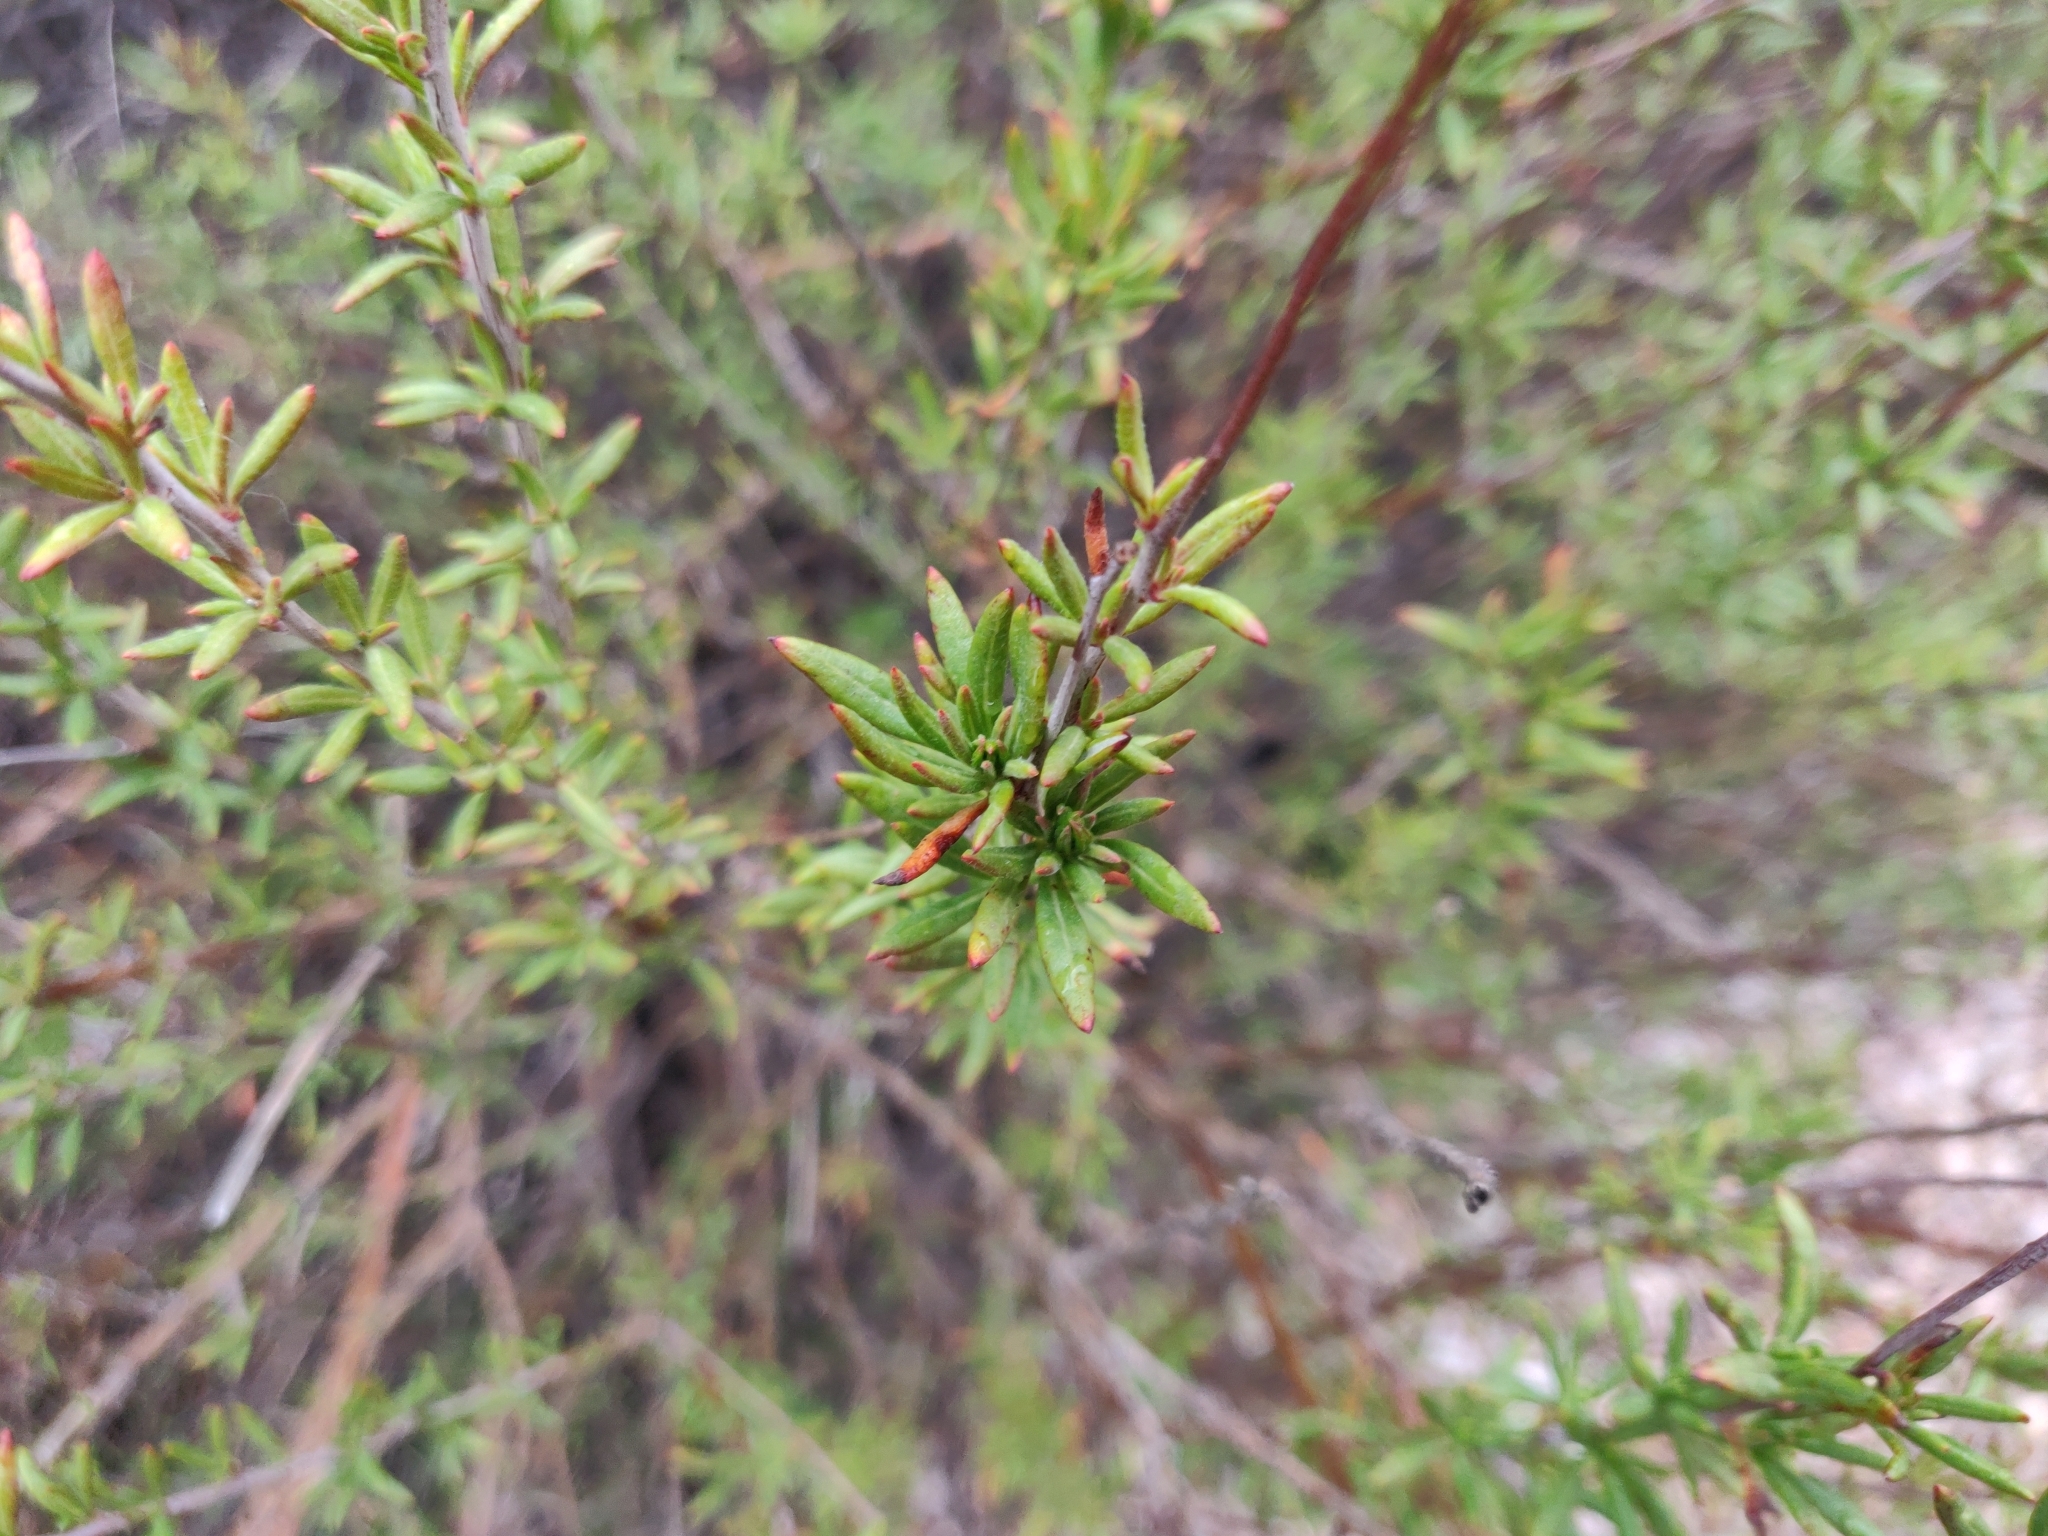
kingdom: Plantae
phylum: Tracheophyta
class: Magnoliopsida
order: Caryophyllales
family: Polygonaceae
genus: Eriogonum
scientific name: Eriogonum fasciculatum
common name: California wild buckwheat
